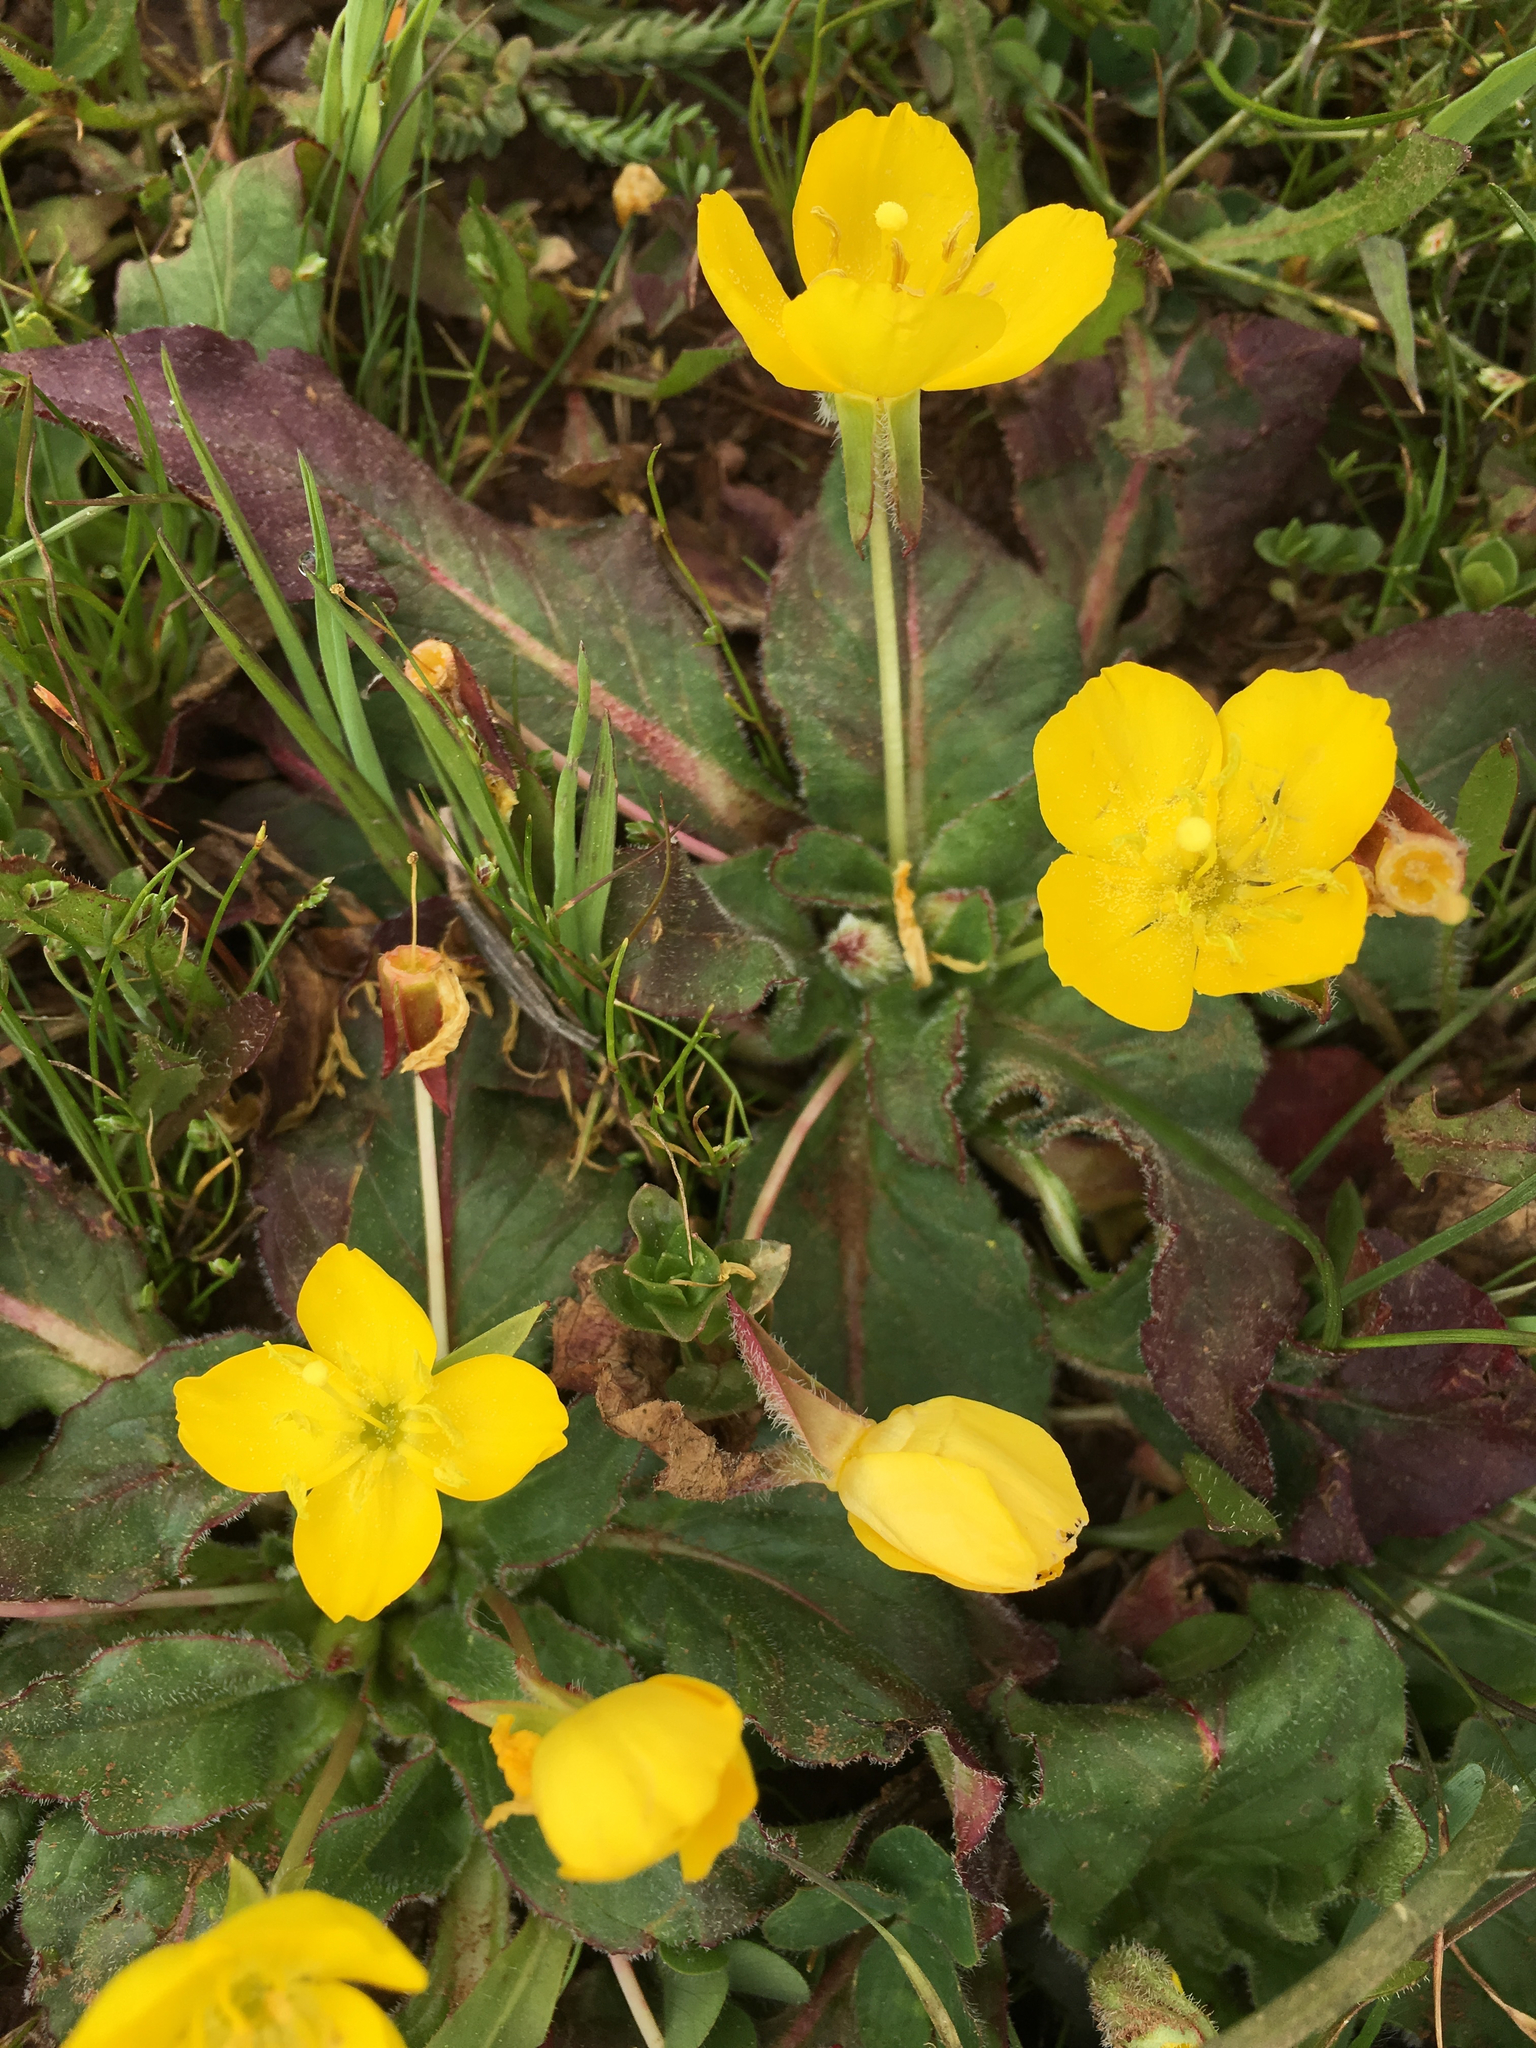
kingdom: Plantae
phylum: Tracheophyta
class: Magnoliopsida
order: Myrtales
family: Onagraceae
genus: Taraxia
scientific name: Taraxia ovata
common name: Goldeneggs
